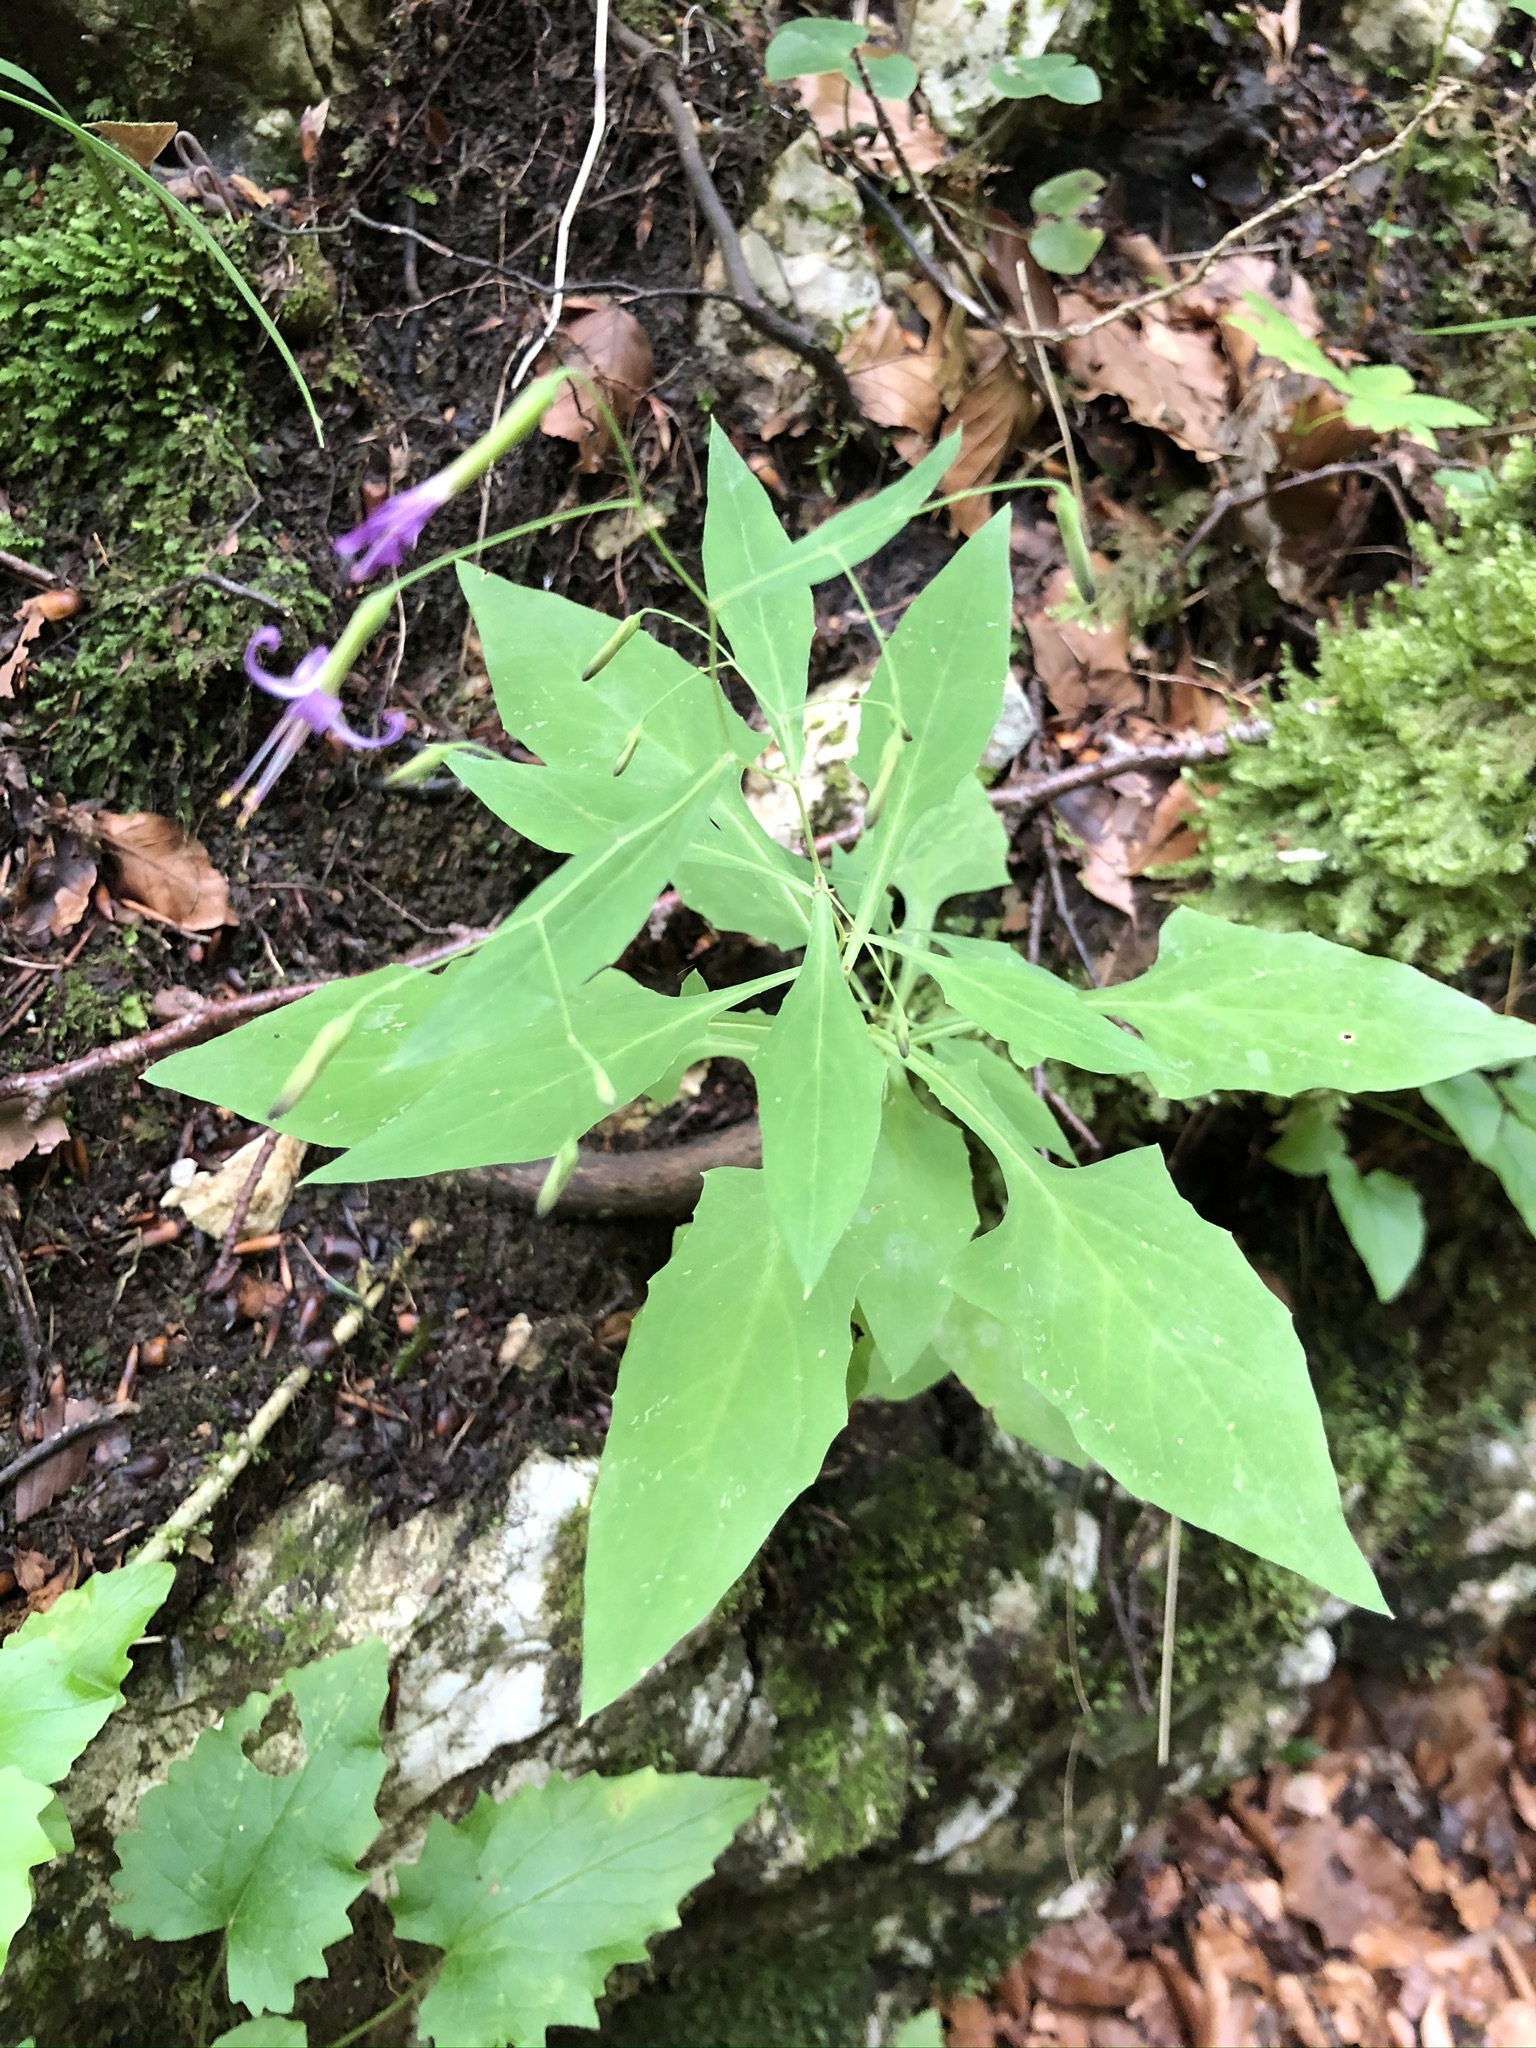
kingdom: Plantae
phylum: Tracheophyta
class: Magnoliopsida
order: Asterales
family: Asteraceae
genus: Prenanthes
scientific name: Prenanthes purpurea
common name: Purple lettuce
